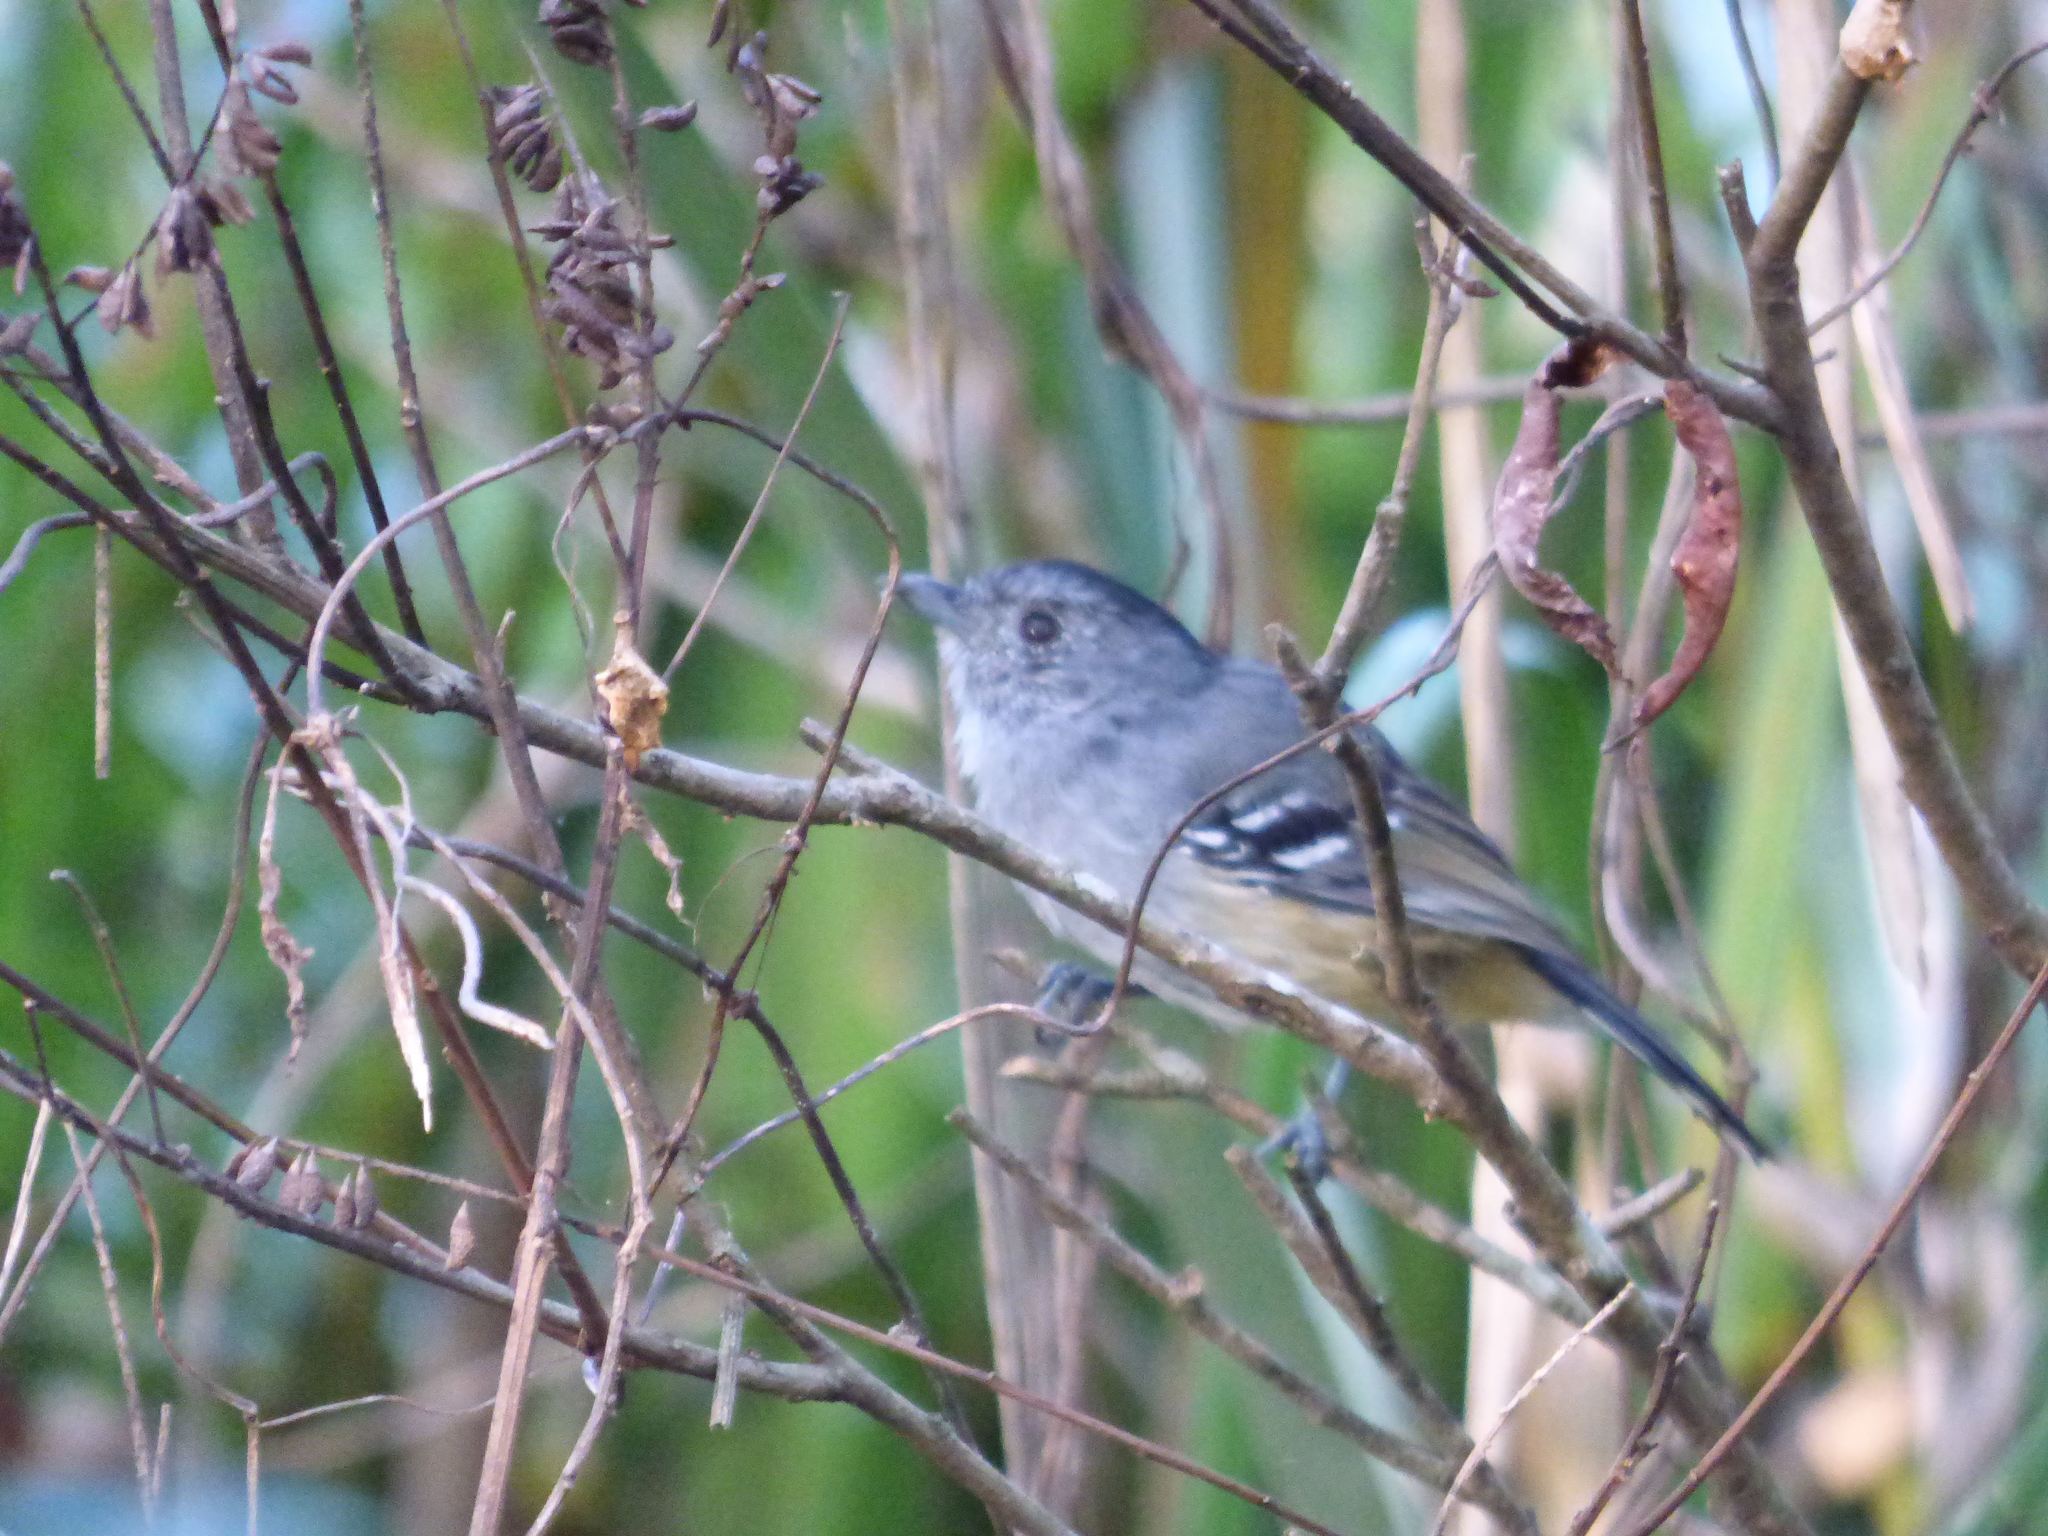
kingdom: Animalia
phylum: Chordata
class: Aves
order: Passeriformes
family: Thamnophilidae
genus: Thamnophilus
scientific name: Thamnophilus caerulescens
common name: Variable antshrike
